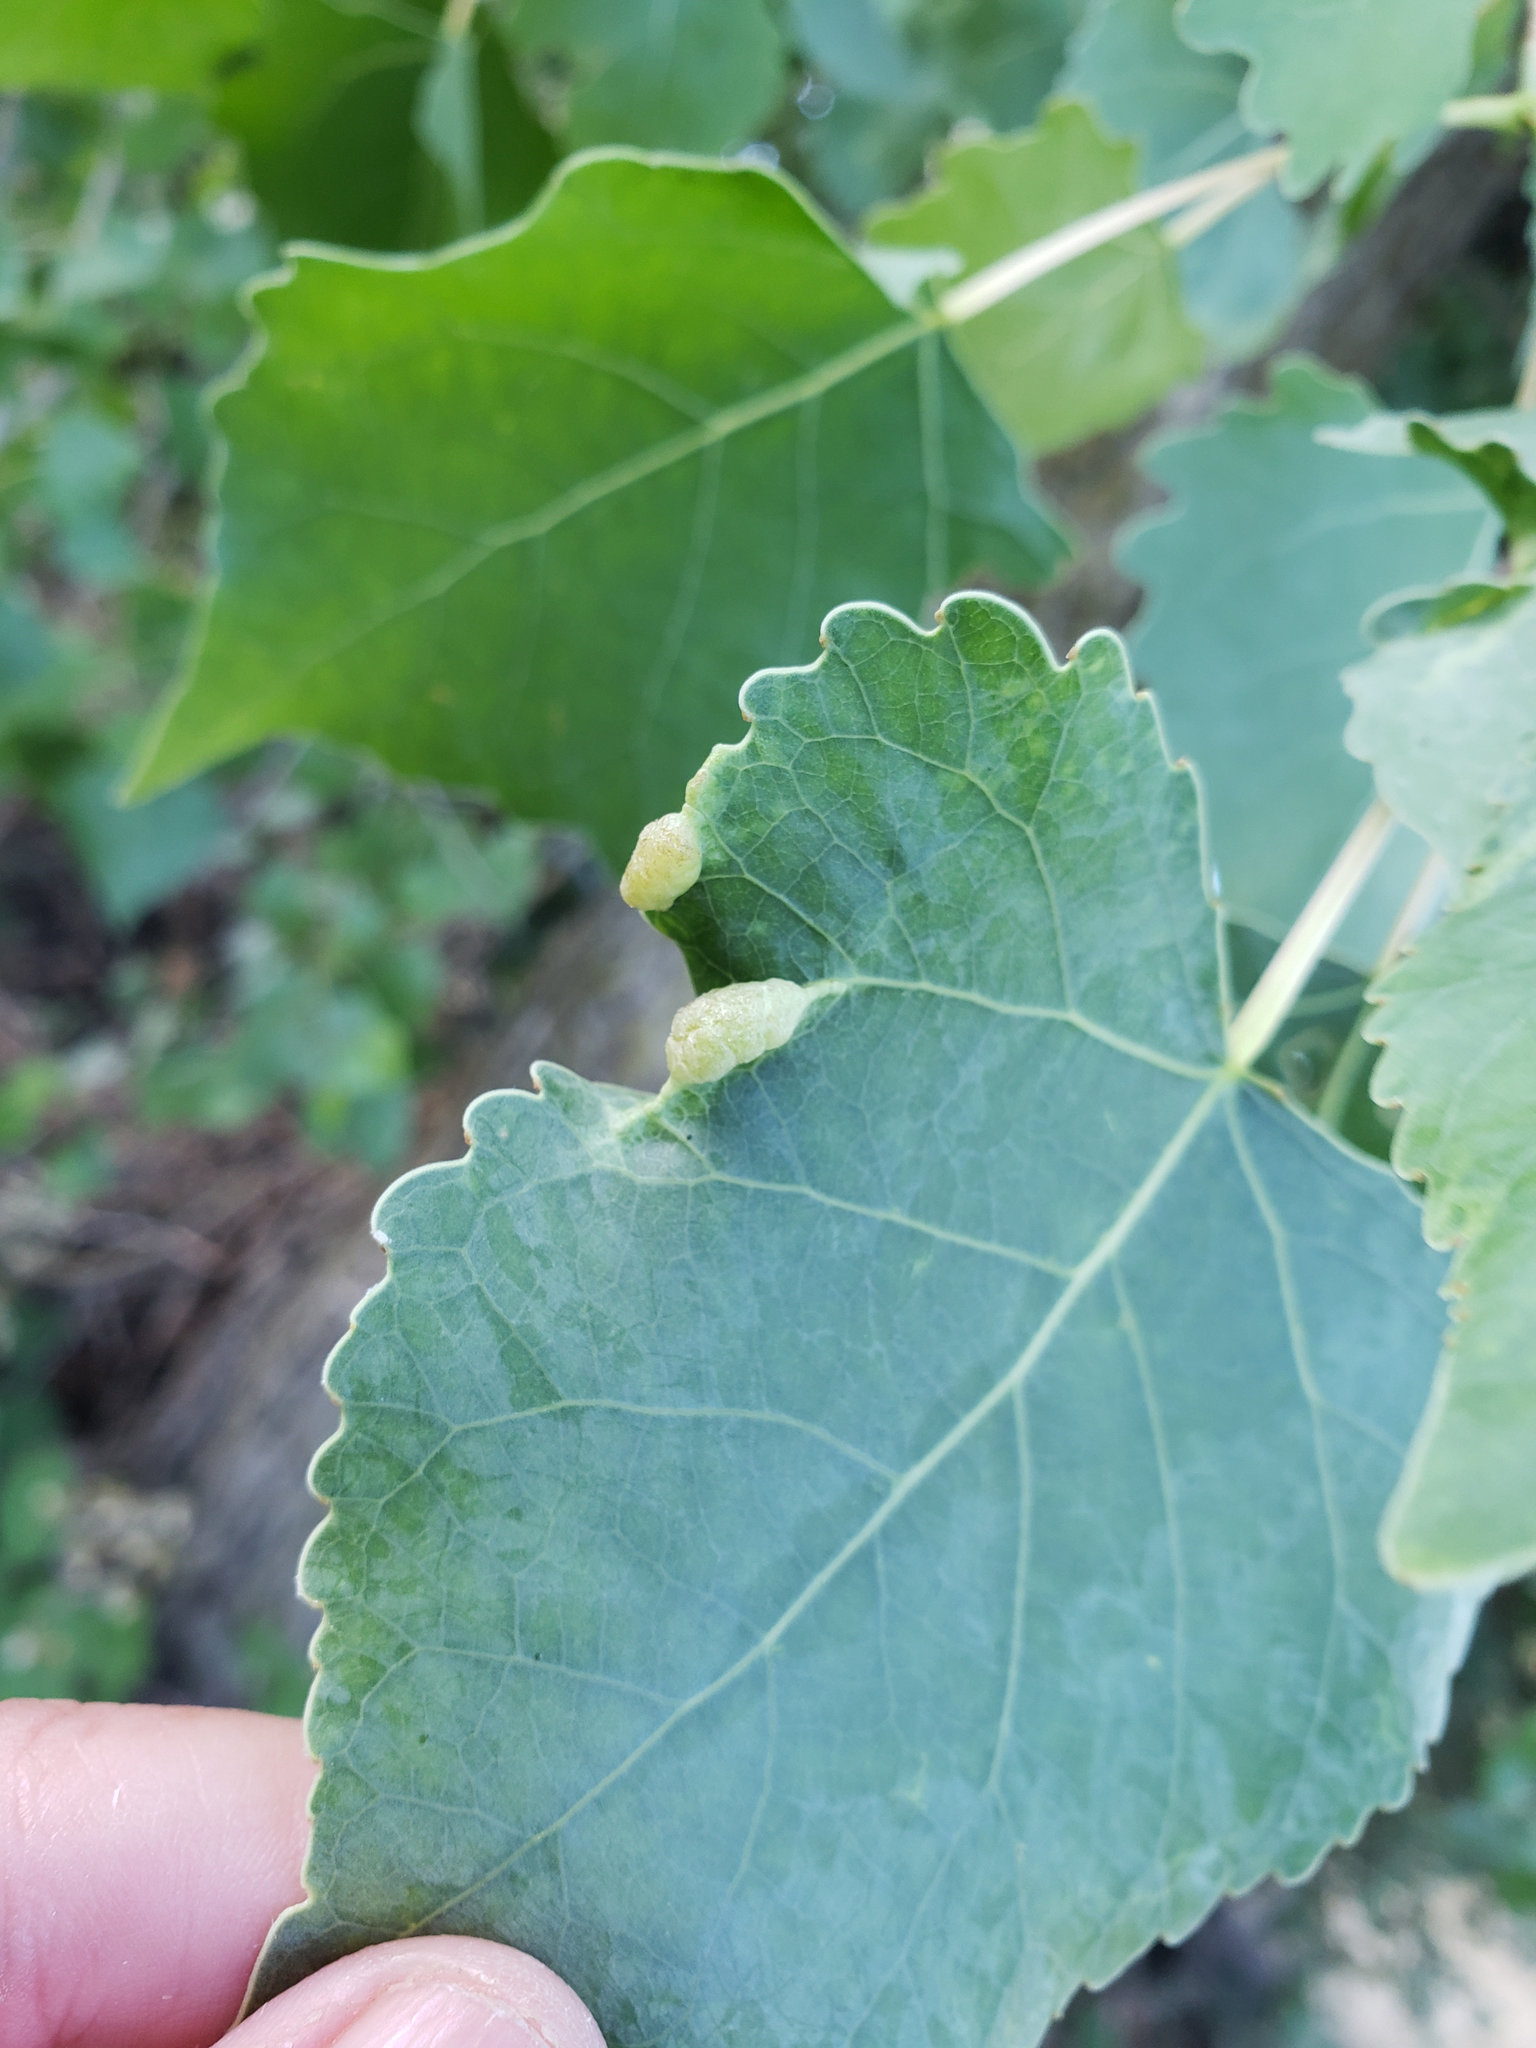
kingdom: Animalia
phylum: Arthropoda
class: Insecta
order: Hemiptera
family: Aphididae
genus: Thecabius
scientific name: Thecabius populimonilis
